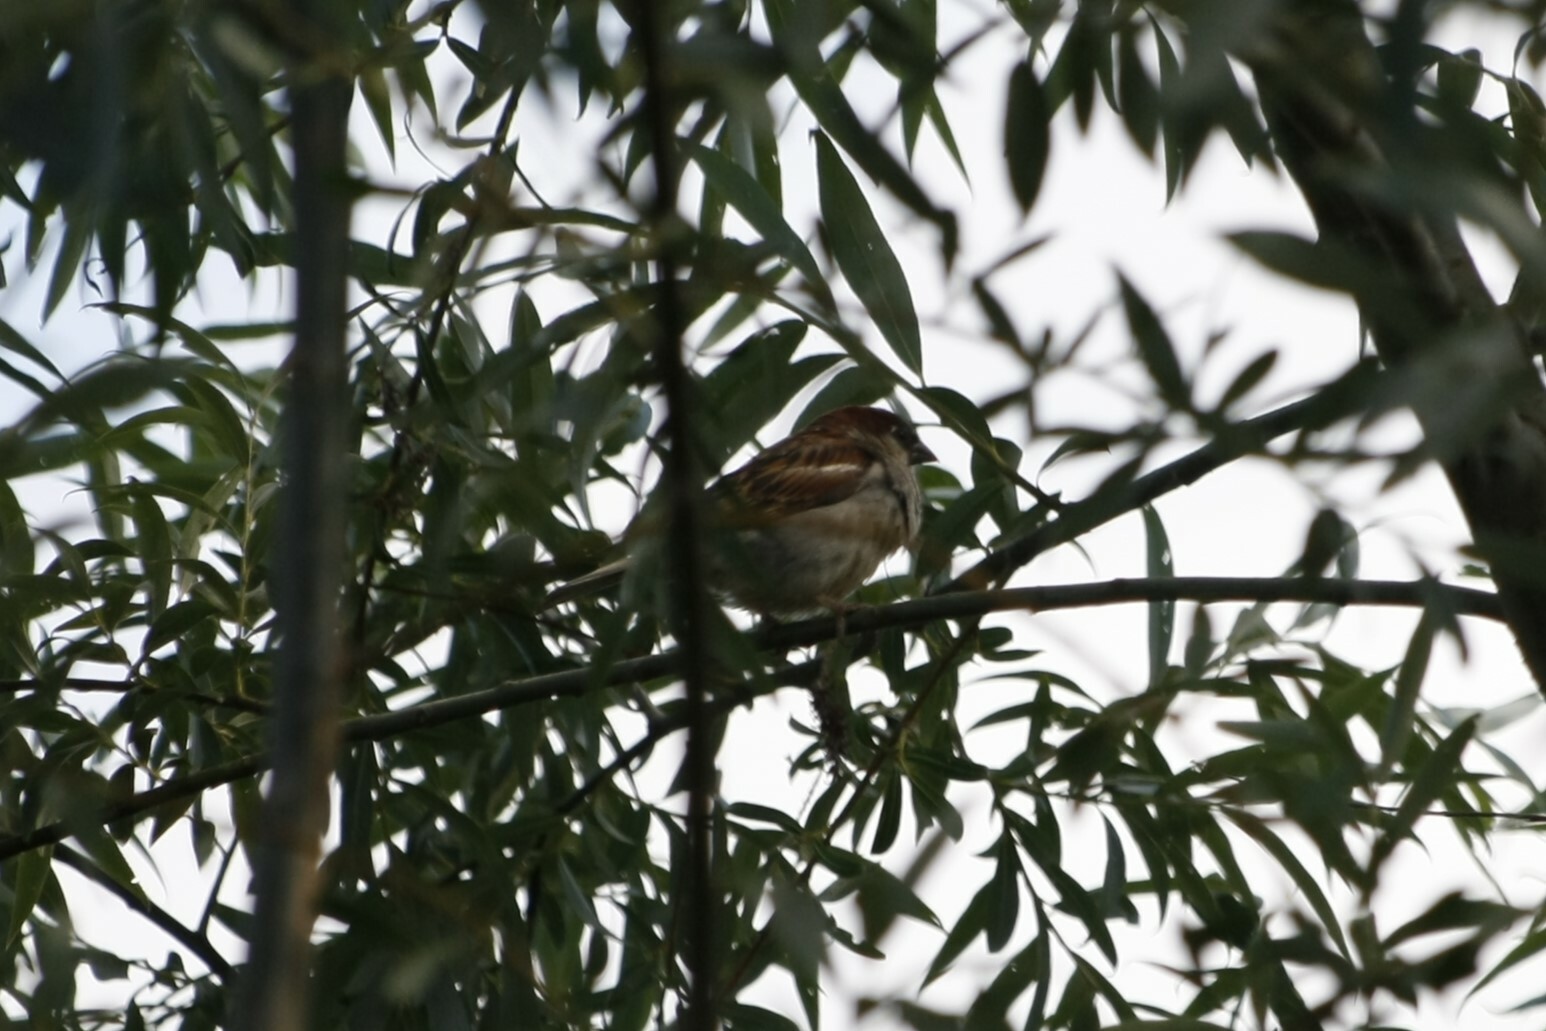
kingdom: Animalia
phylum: Chordata
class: Aves
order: Passeriformes
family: Passeridae
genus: Passer
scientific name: Passer domesticus
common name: House sparrow
